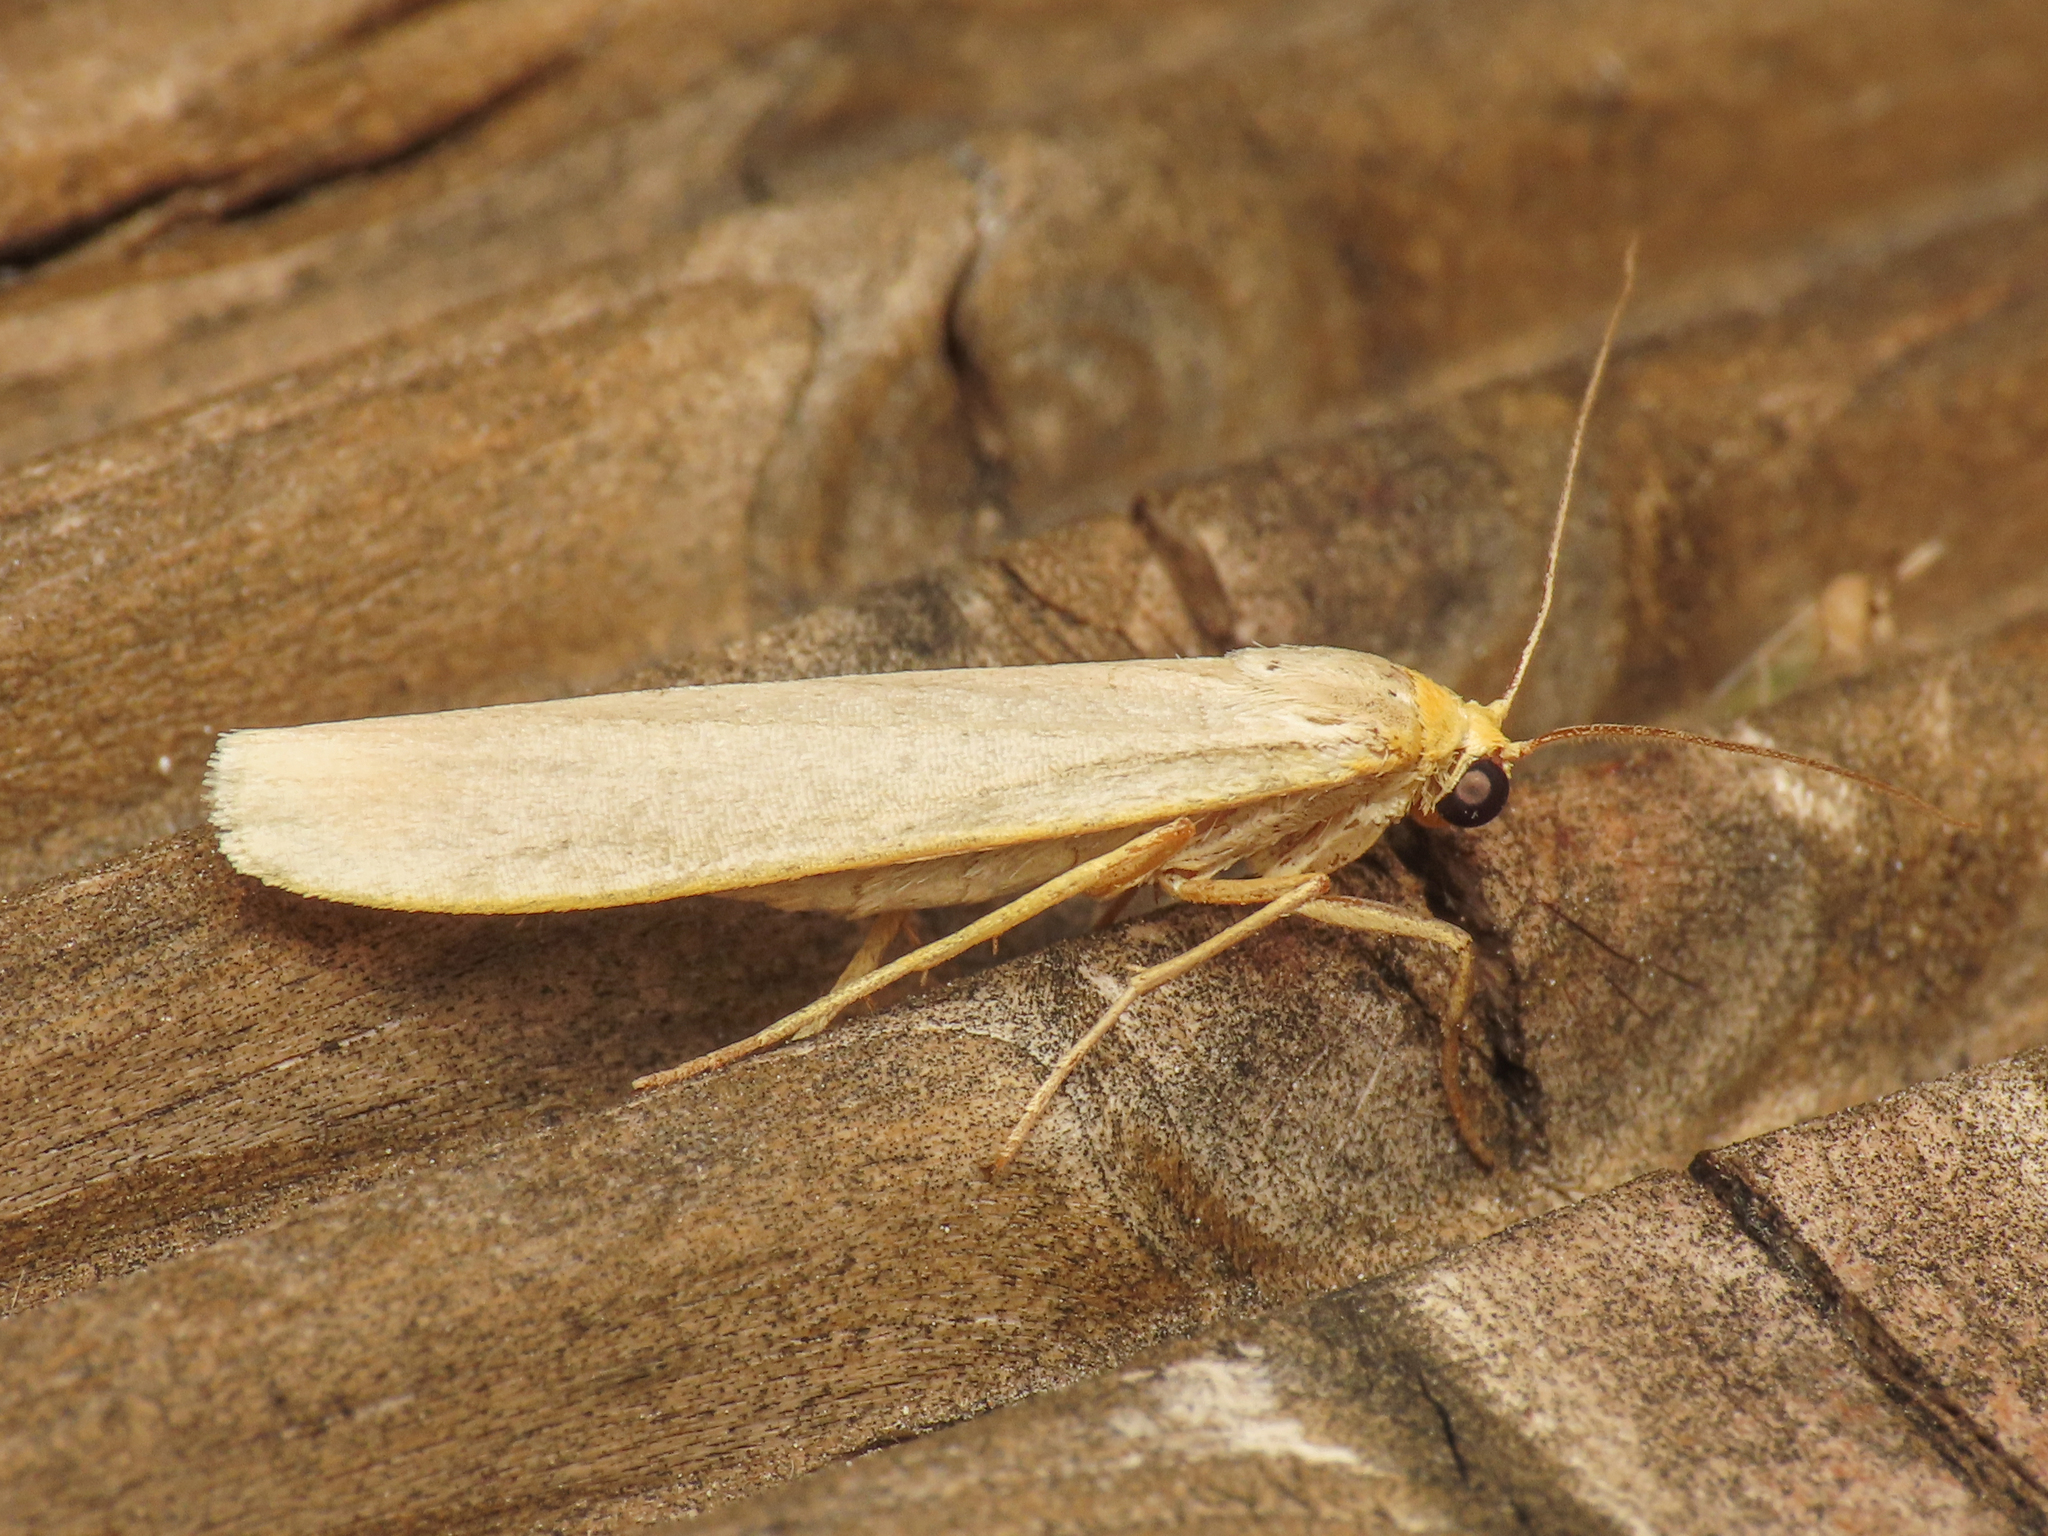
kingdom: Animalia
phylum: Arthropoda
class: Insecta
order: Lepidoptera
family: Erebidae
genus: Eilema
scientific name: Eilema caniola
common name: Hoary footman
